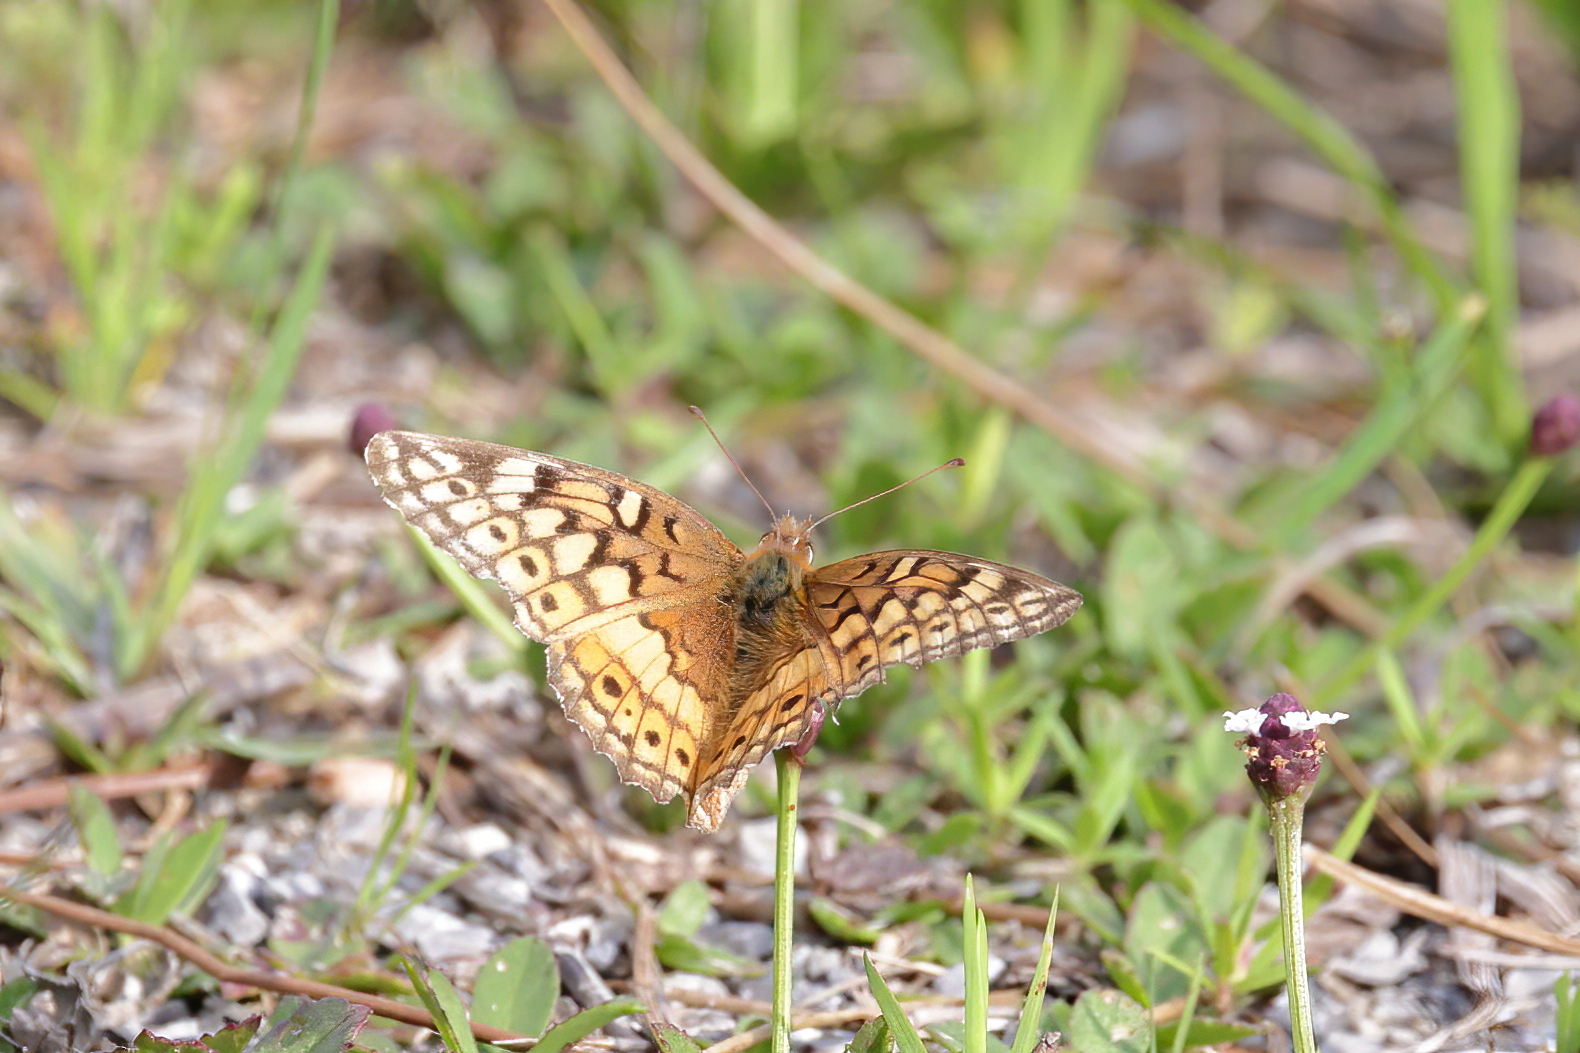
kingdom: Animalia
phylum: Arthropoda
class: Insecta
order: Lepidoptera
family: Nymphalidae
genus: Euptoieta
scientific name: Euptoieta claudia
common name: Variegated fritillary
